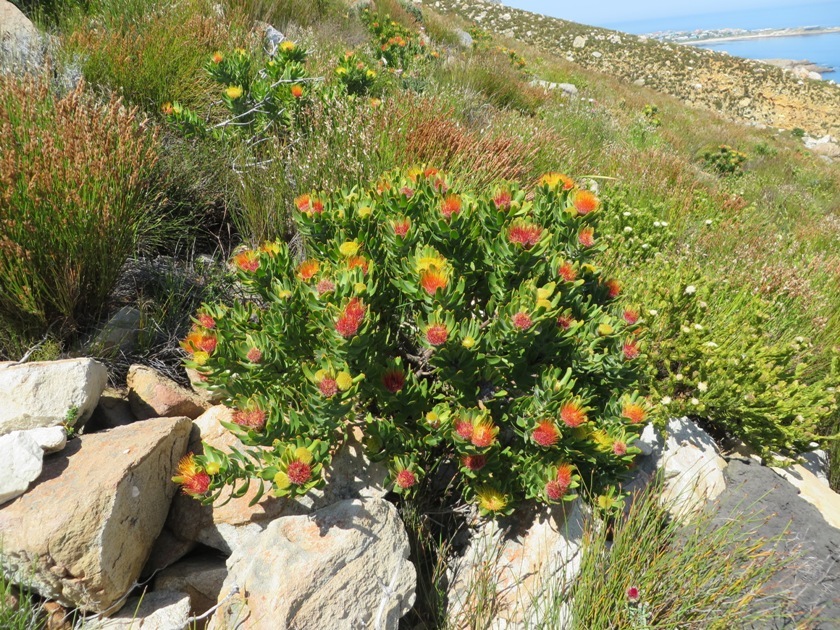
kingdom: Plantae
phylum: Tracheophyta
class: Magnoliopsida
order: Proteales
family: Proteaceae
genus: Leucospermum
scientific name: Leucospermum oleifolium
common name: Matches
